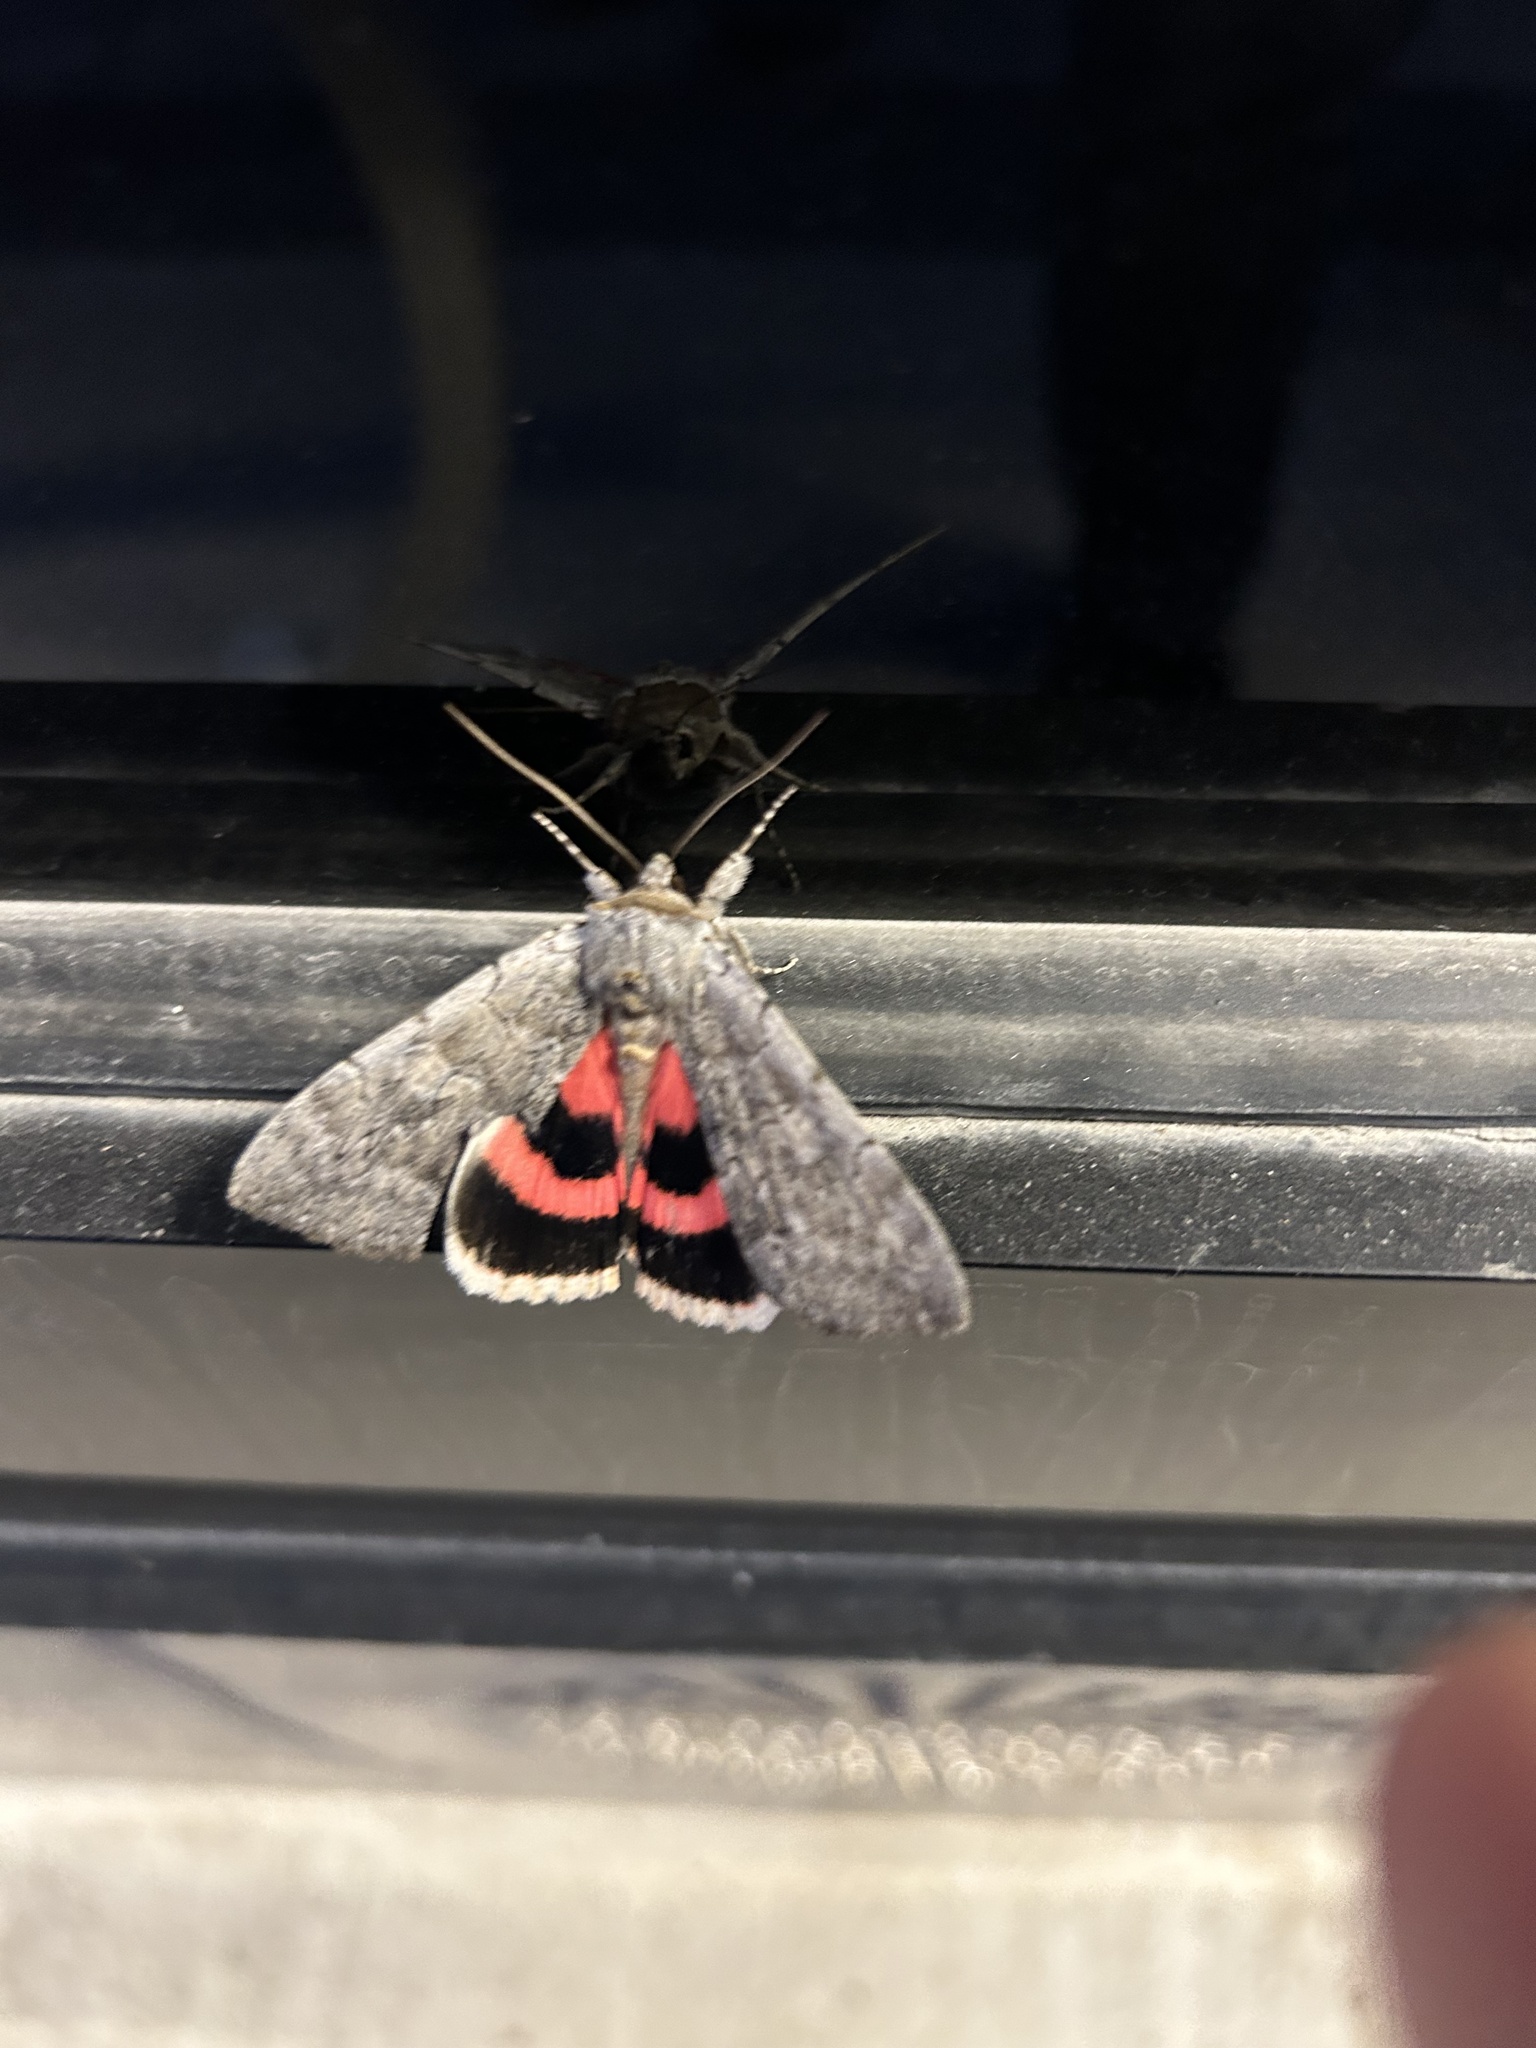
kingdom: Animalia
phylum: Arthropoda
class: Insecta
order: Lepidoptera
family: Erebidae
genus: Catocala
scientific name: Catocala concumbens
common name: Pink underwing
